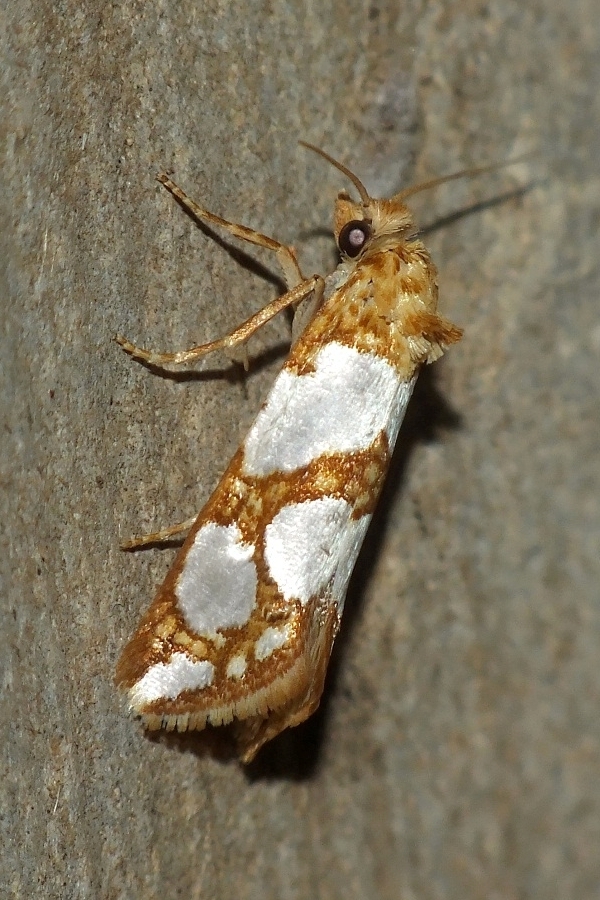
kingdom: Animalia
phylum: Arthropoda
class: Insecta
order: Lepidoptera
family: Tortricidae
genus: Eugnosta
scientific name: Eugnosta lathoniana
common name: Silver-blotched conch
